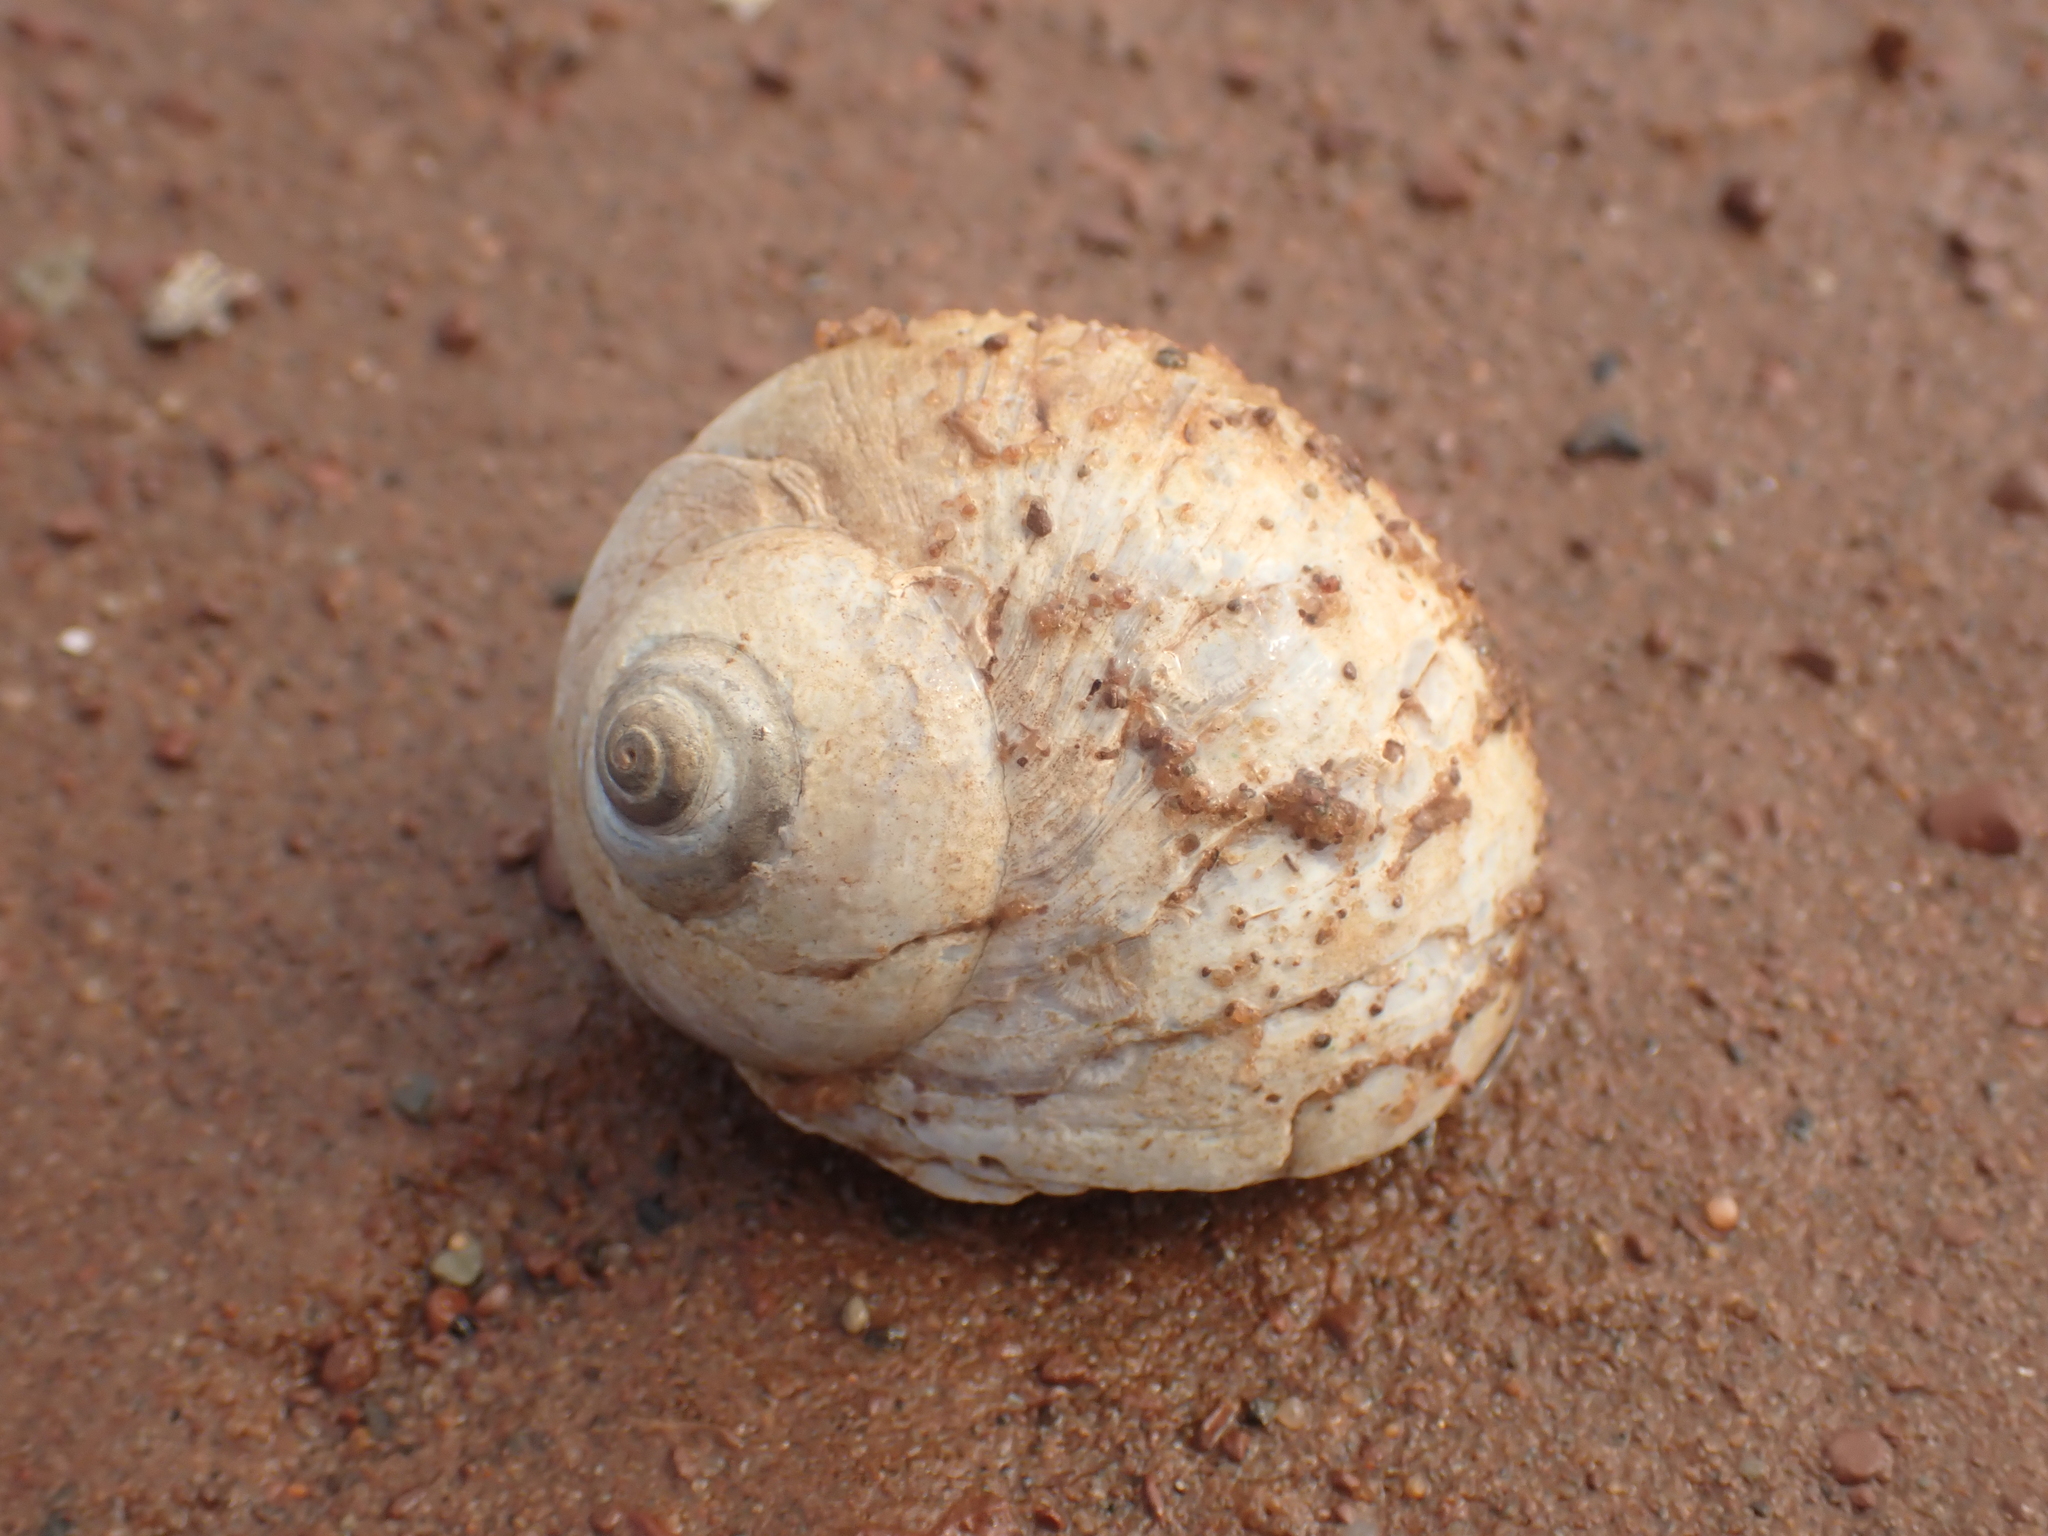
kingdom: Animalia
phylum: Mollusca
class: Gastropoda
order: Littorinimorpha
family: Naticidae
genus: Euspira
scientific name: Euspira heros
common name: Common northern moonsnail
